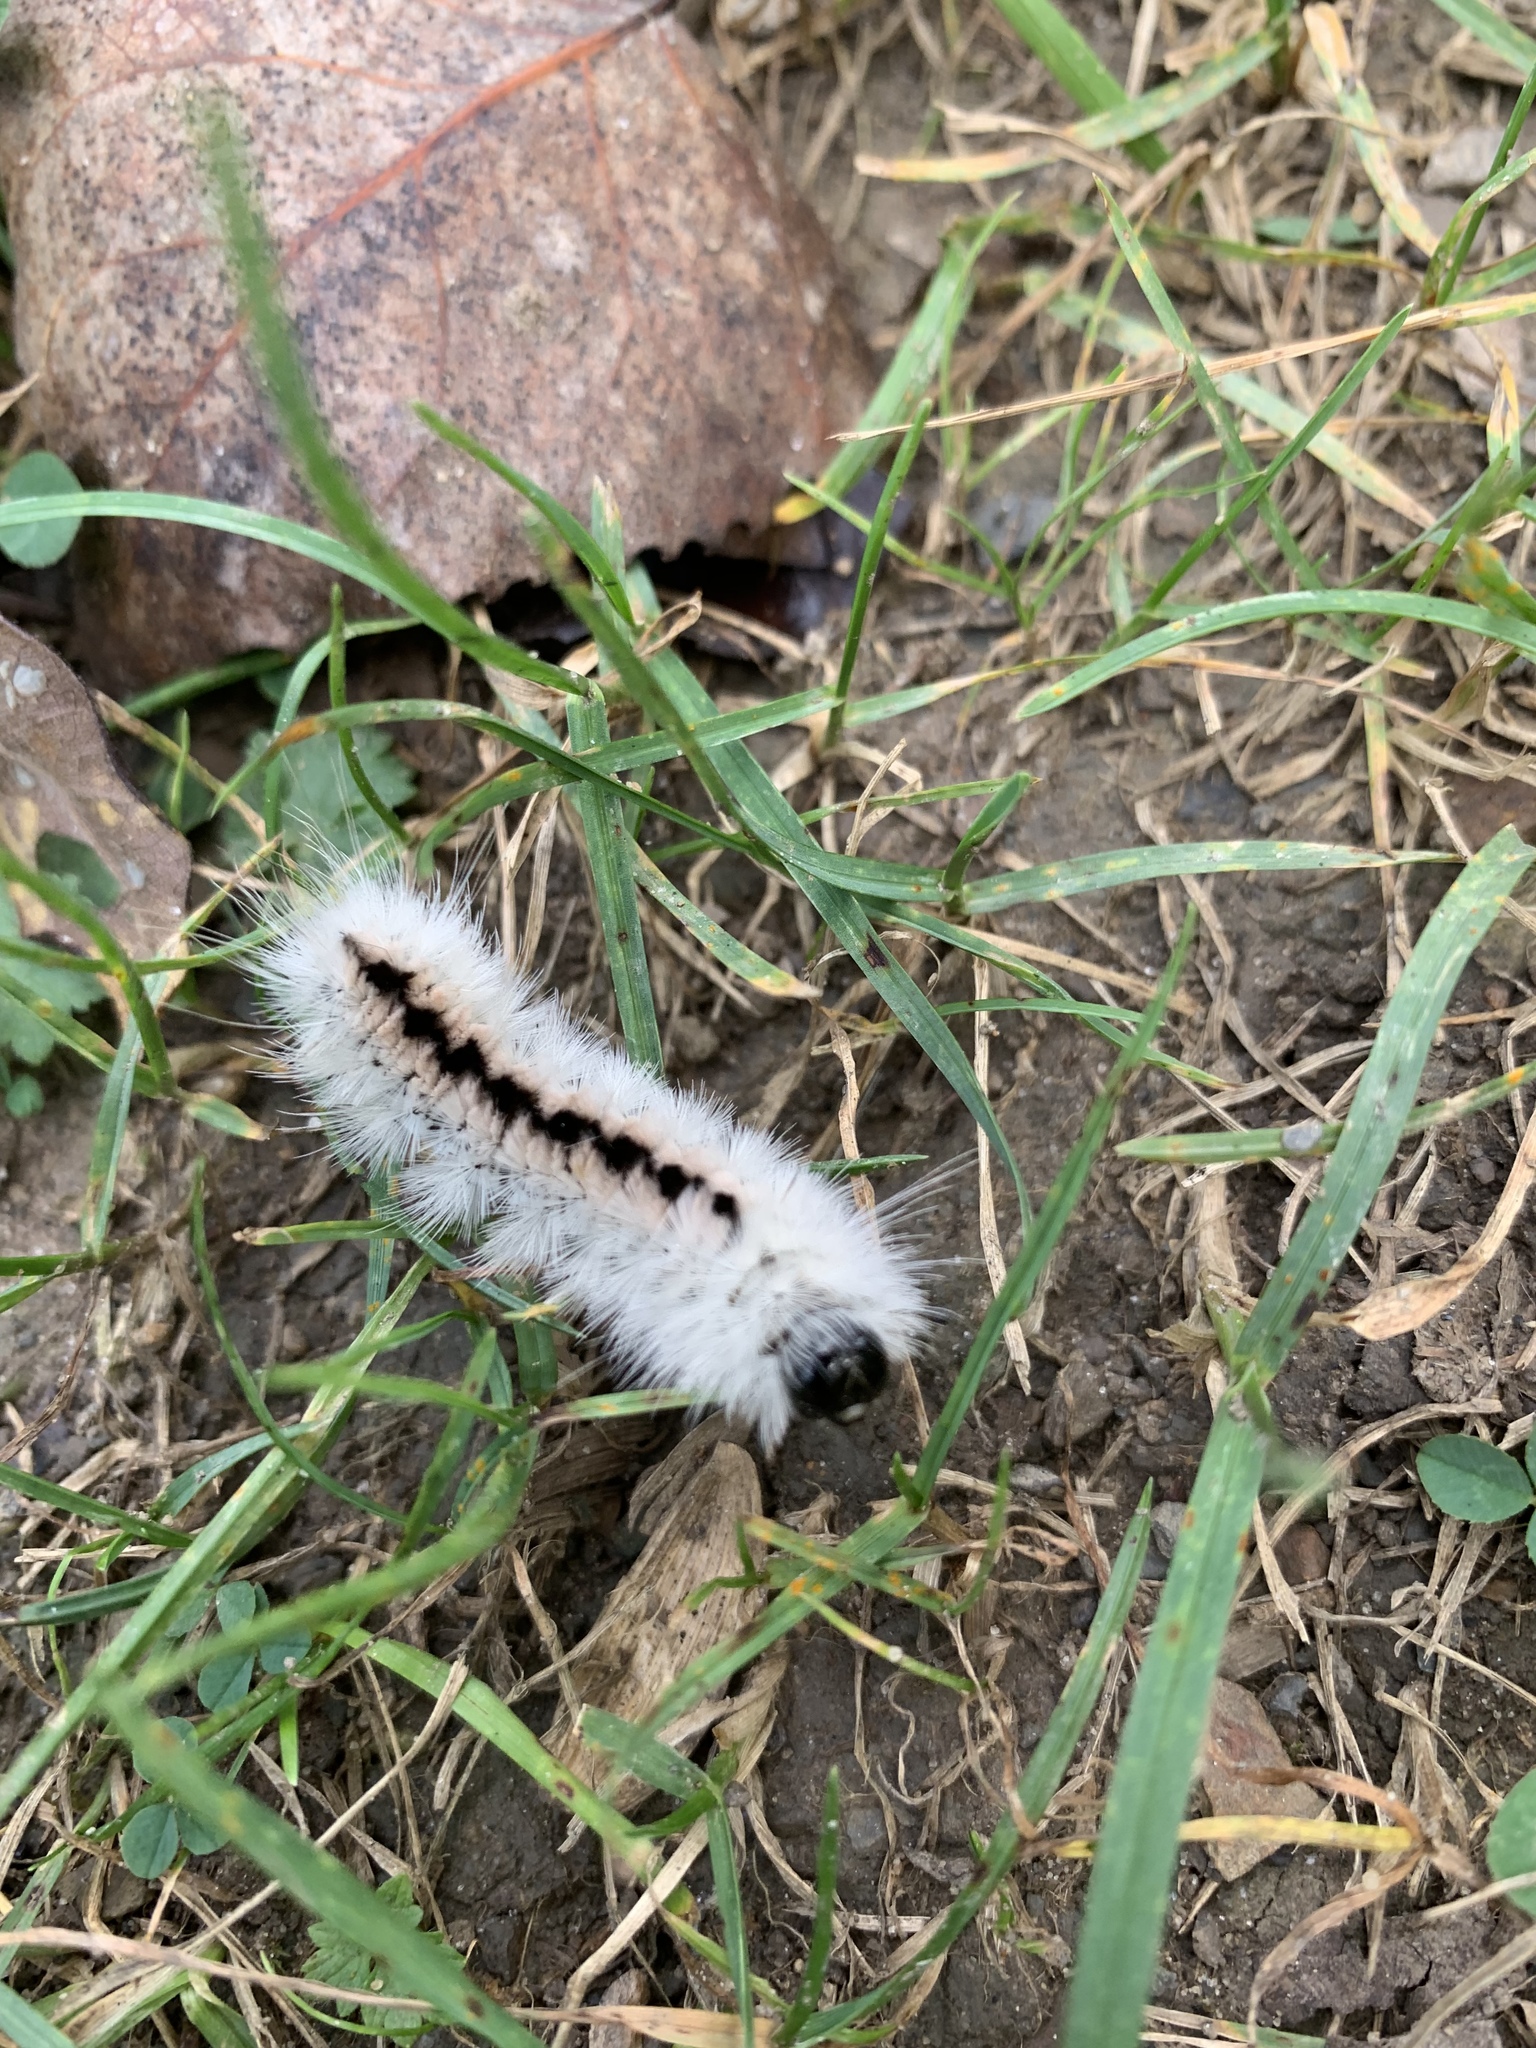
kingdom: Animalia
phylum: Arthropoda
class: Insecta
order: Lepidoptera
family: Erebidae
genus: Lophocampa
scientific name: Lophocampa caryae
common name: Hickory tussock moth
